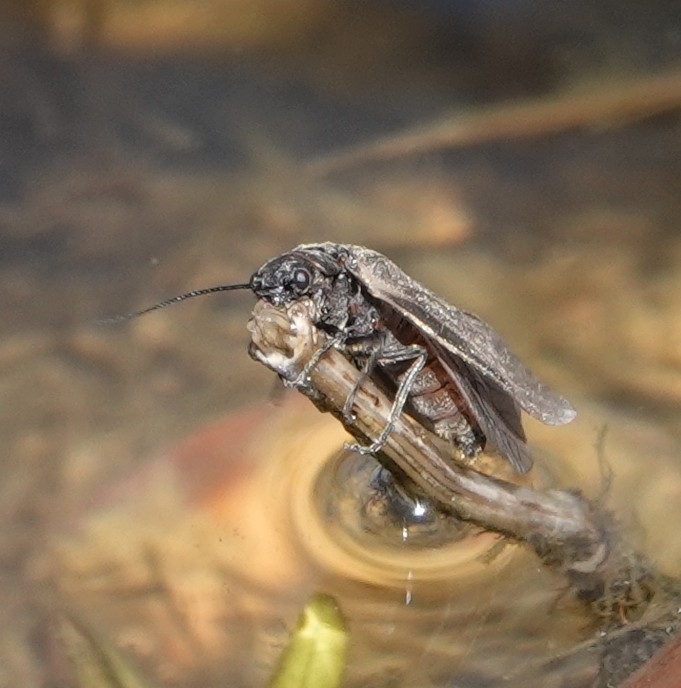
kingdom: Animalia
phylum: Arthropoda
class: Insecta
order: Megaloptera
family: Sialidae
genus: Sialis
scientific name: Sialis
